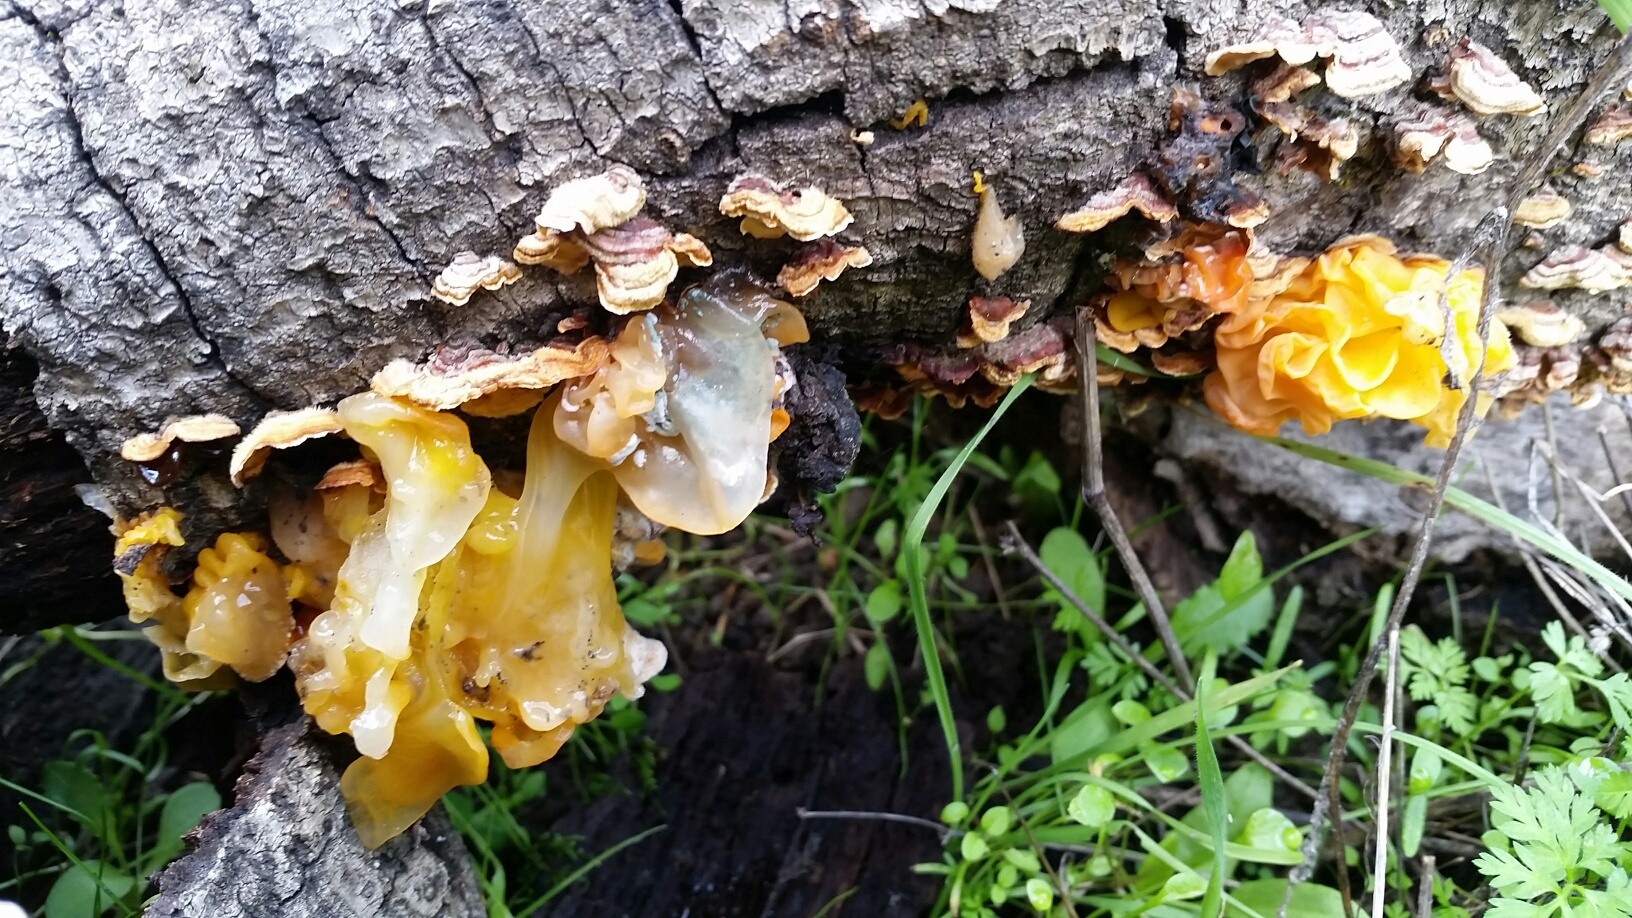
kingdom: Fungi
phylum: Basidiomycota
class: Tremellomycetes
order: Tremellales
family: Naemateliaceae
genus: Naematelia
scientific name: Naematelia aurantia
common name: Golden ear
